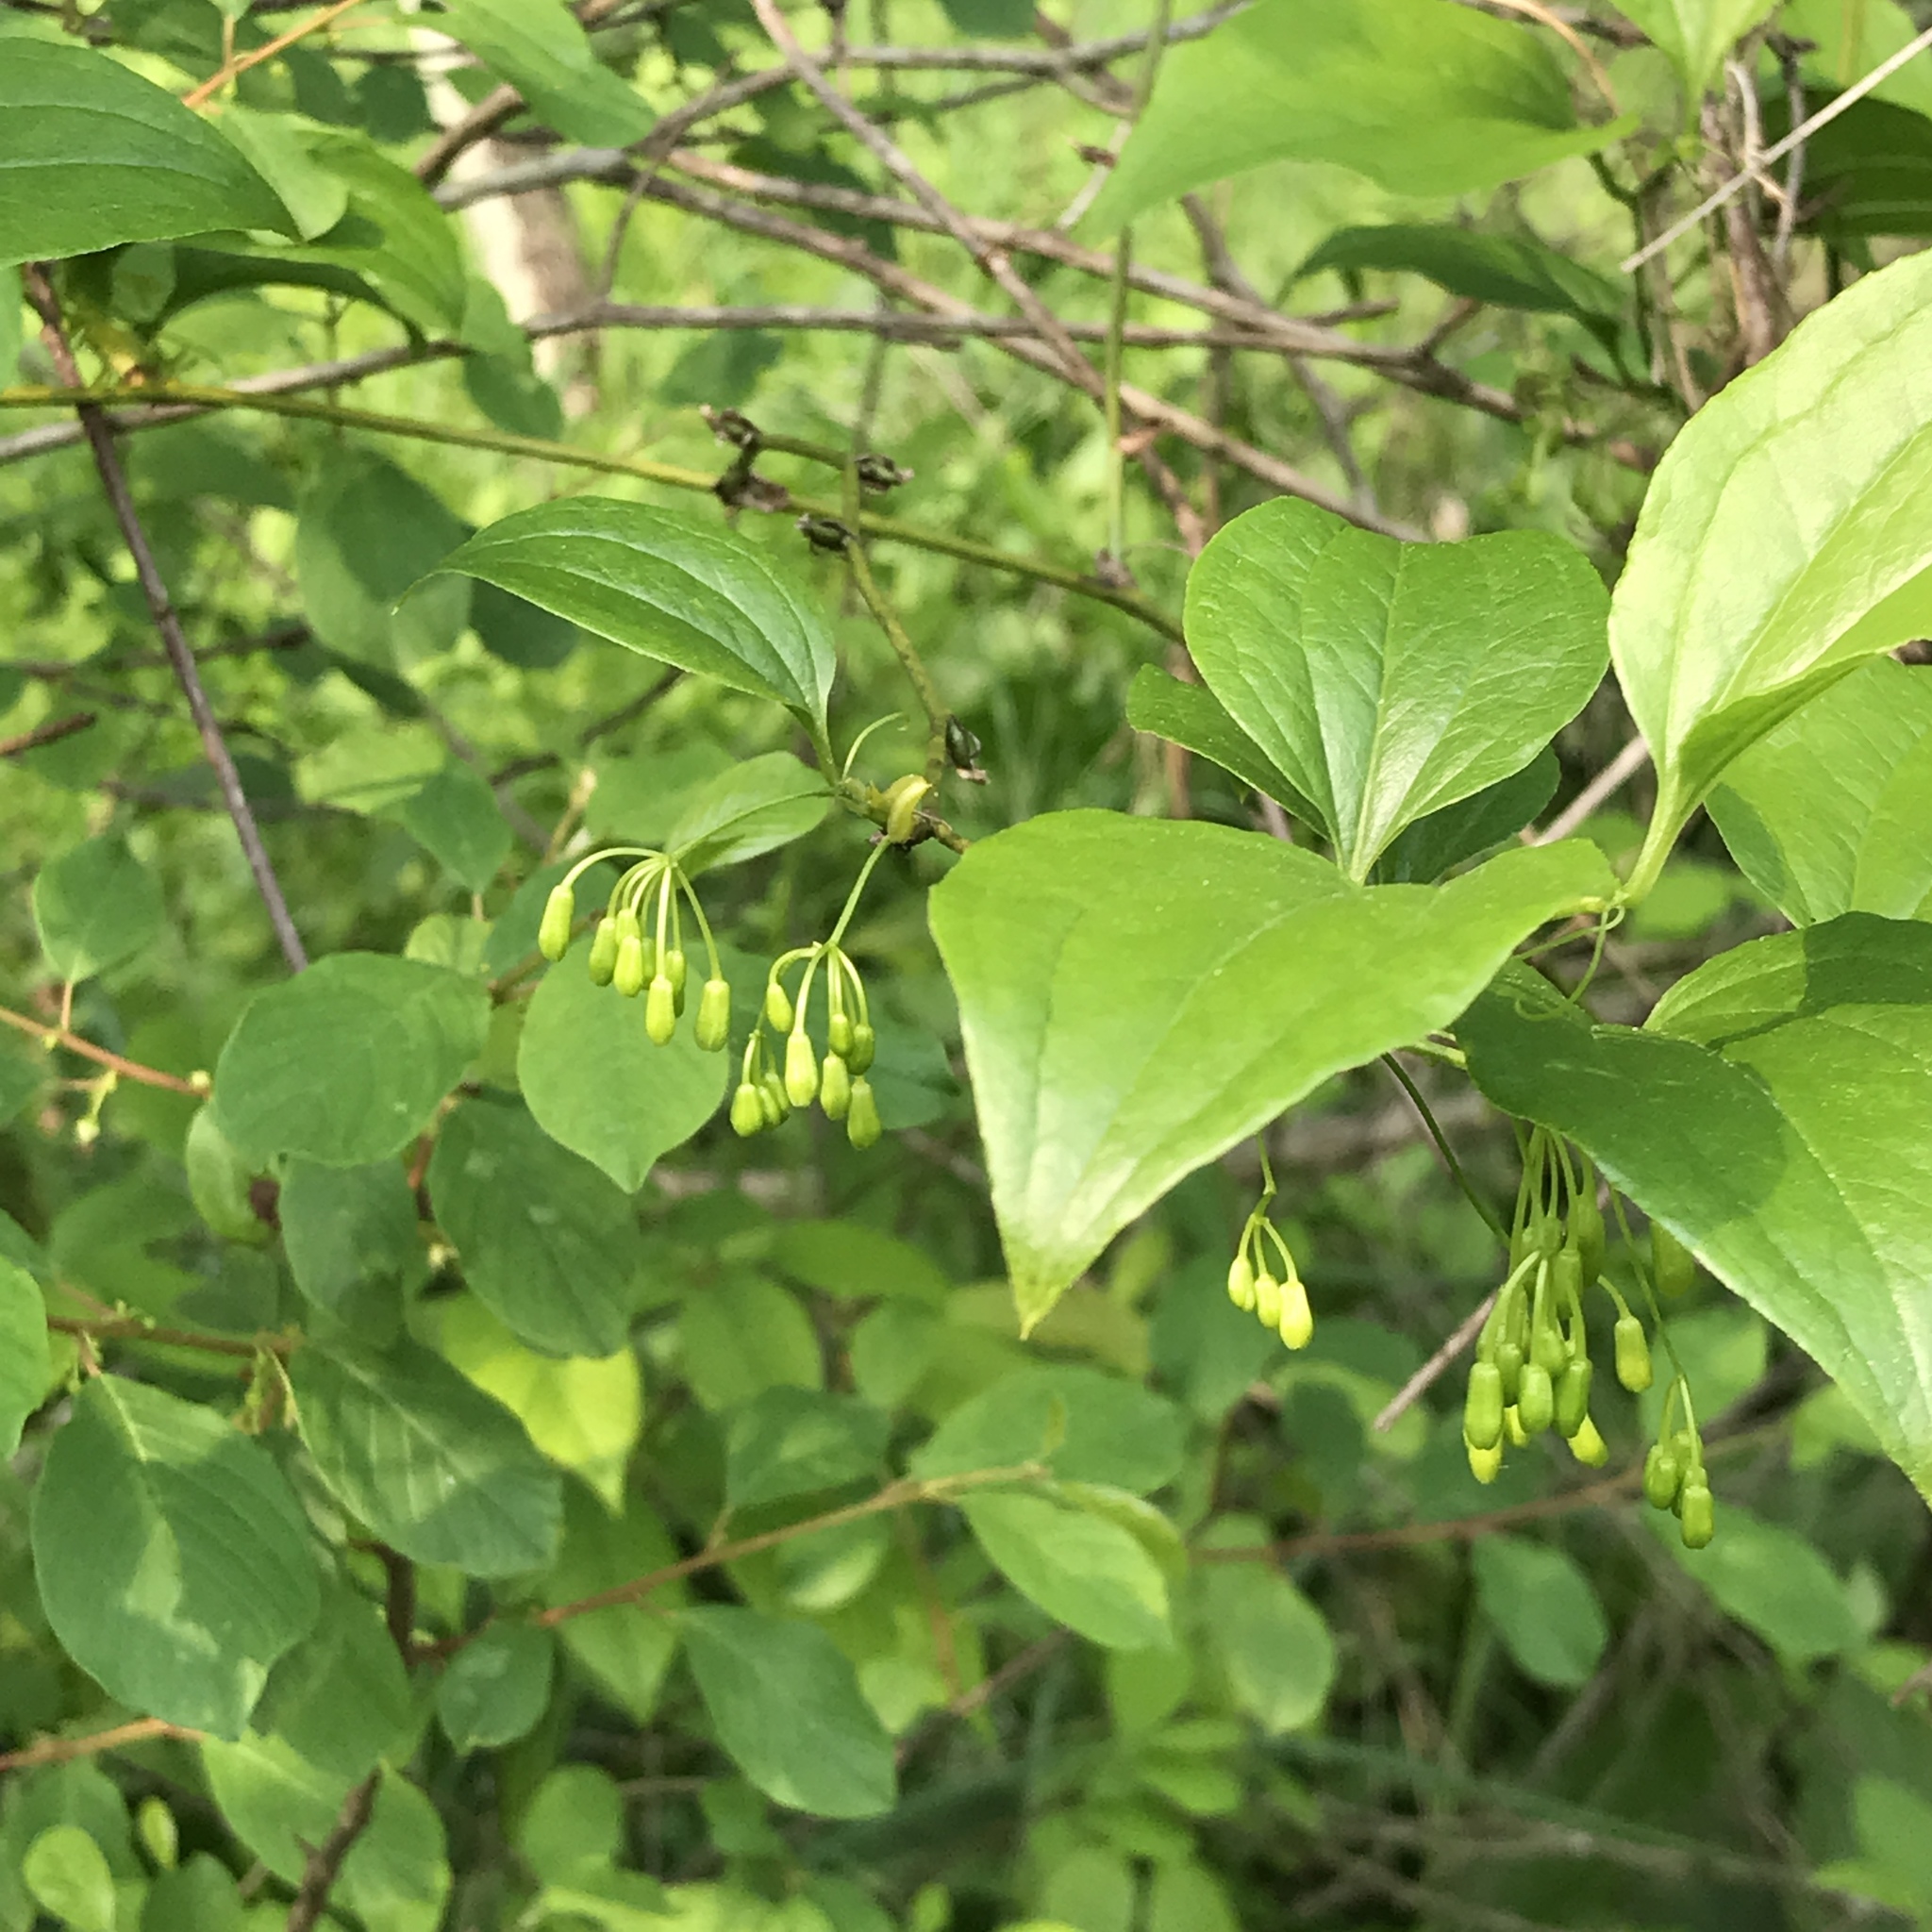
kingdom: Plantae
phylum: Tracheophyta
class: Liliopsida
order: Liliales
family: Smilacaceae
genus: Smilax
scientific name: Smilax tamnoides
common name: Hellfetter
